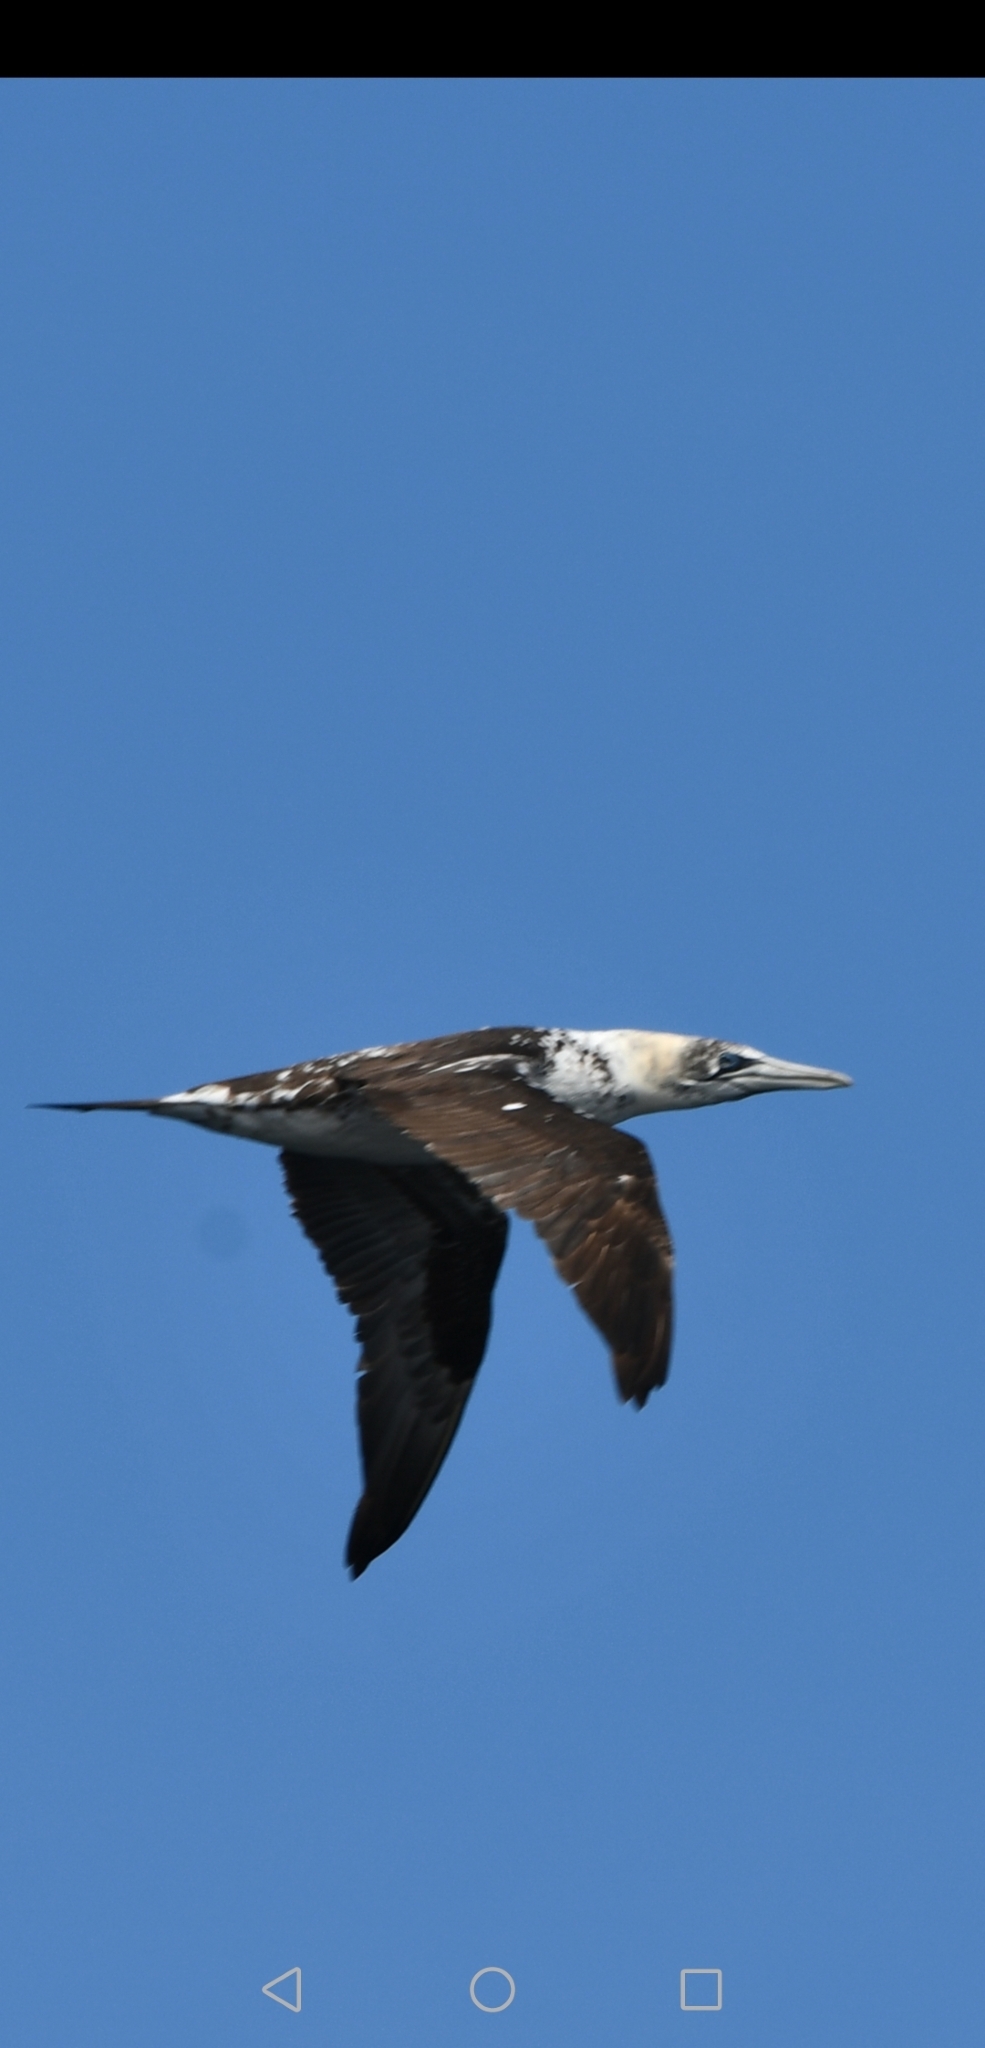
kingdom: Animalia
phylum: Chordata
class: Aves
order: Suliformes
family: Sulidae
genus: Morus
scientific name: Morus bassanus
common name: Northern gannet
